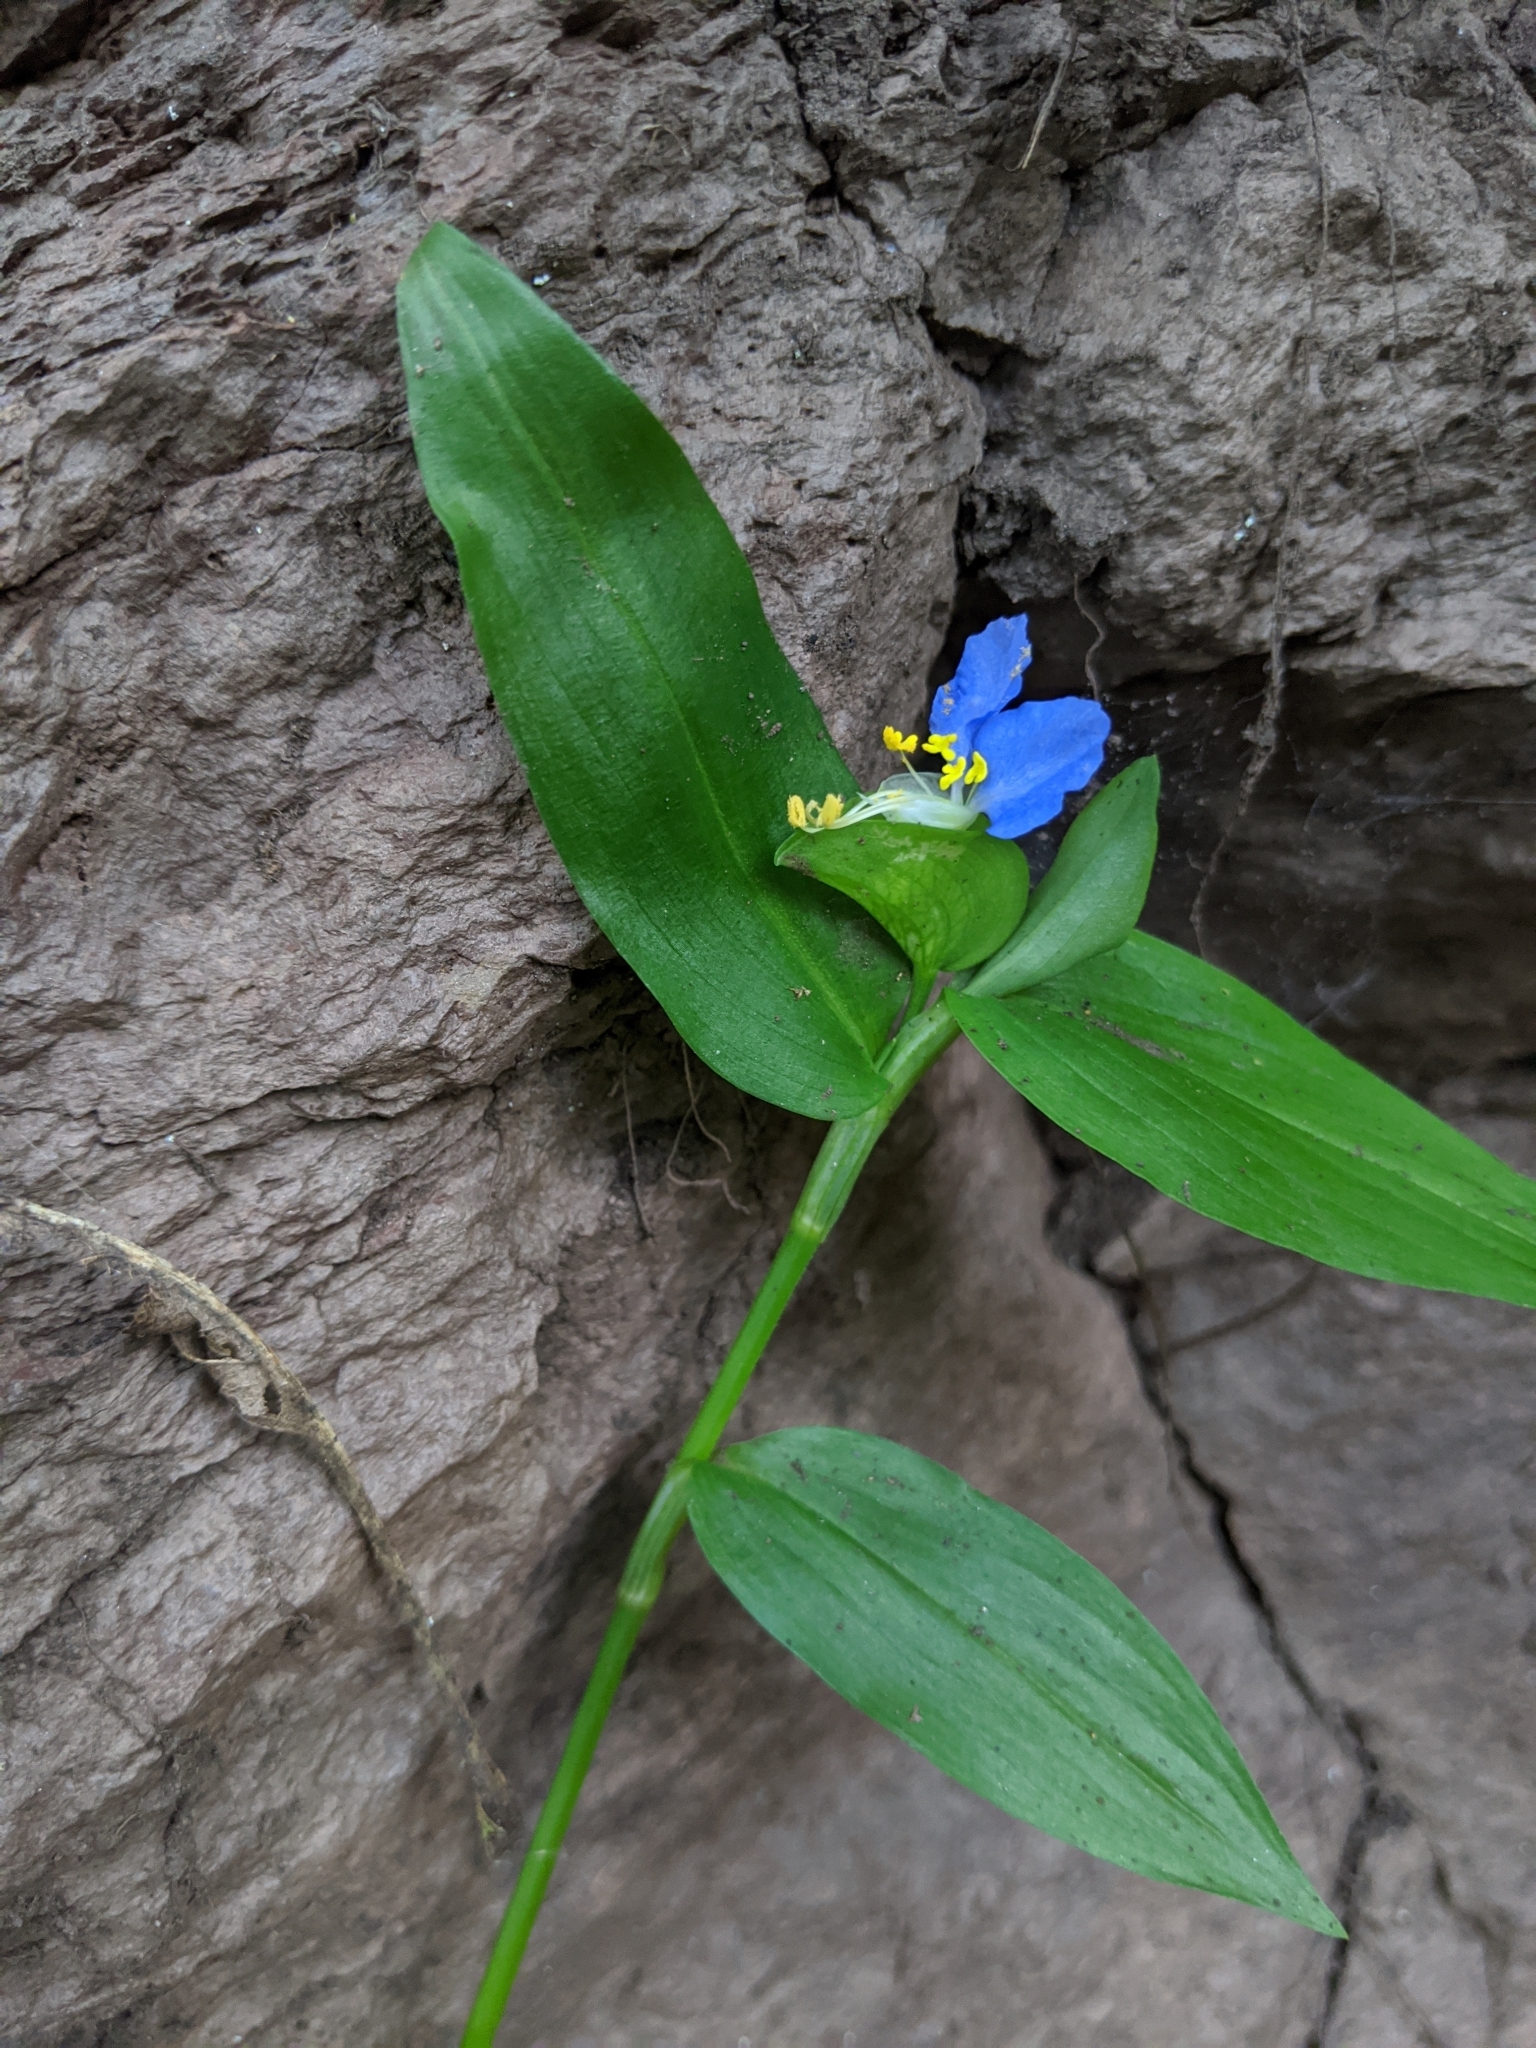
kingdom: Plantae
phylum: Tracheophyta
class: Liliopsida
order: Commelinales
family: Commelinaceae
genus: Commelina
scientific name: Commelina communis
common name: Asiatic dayflower
